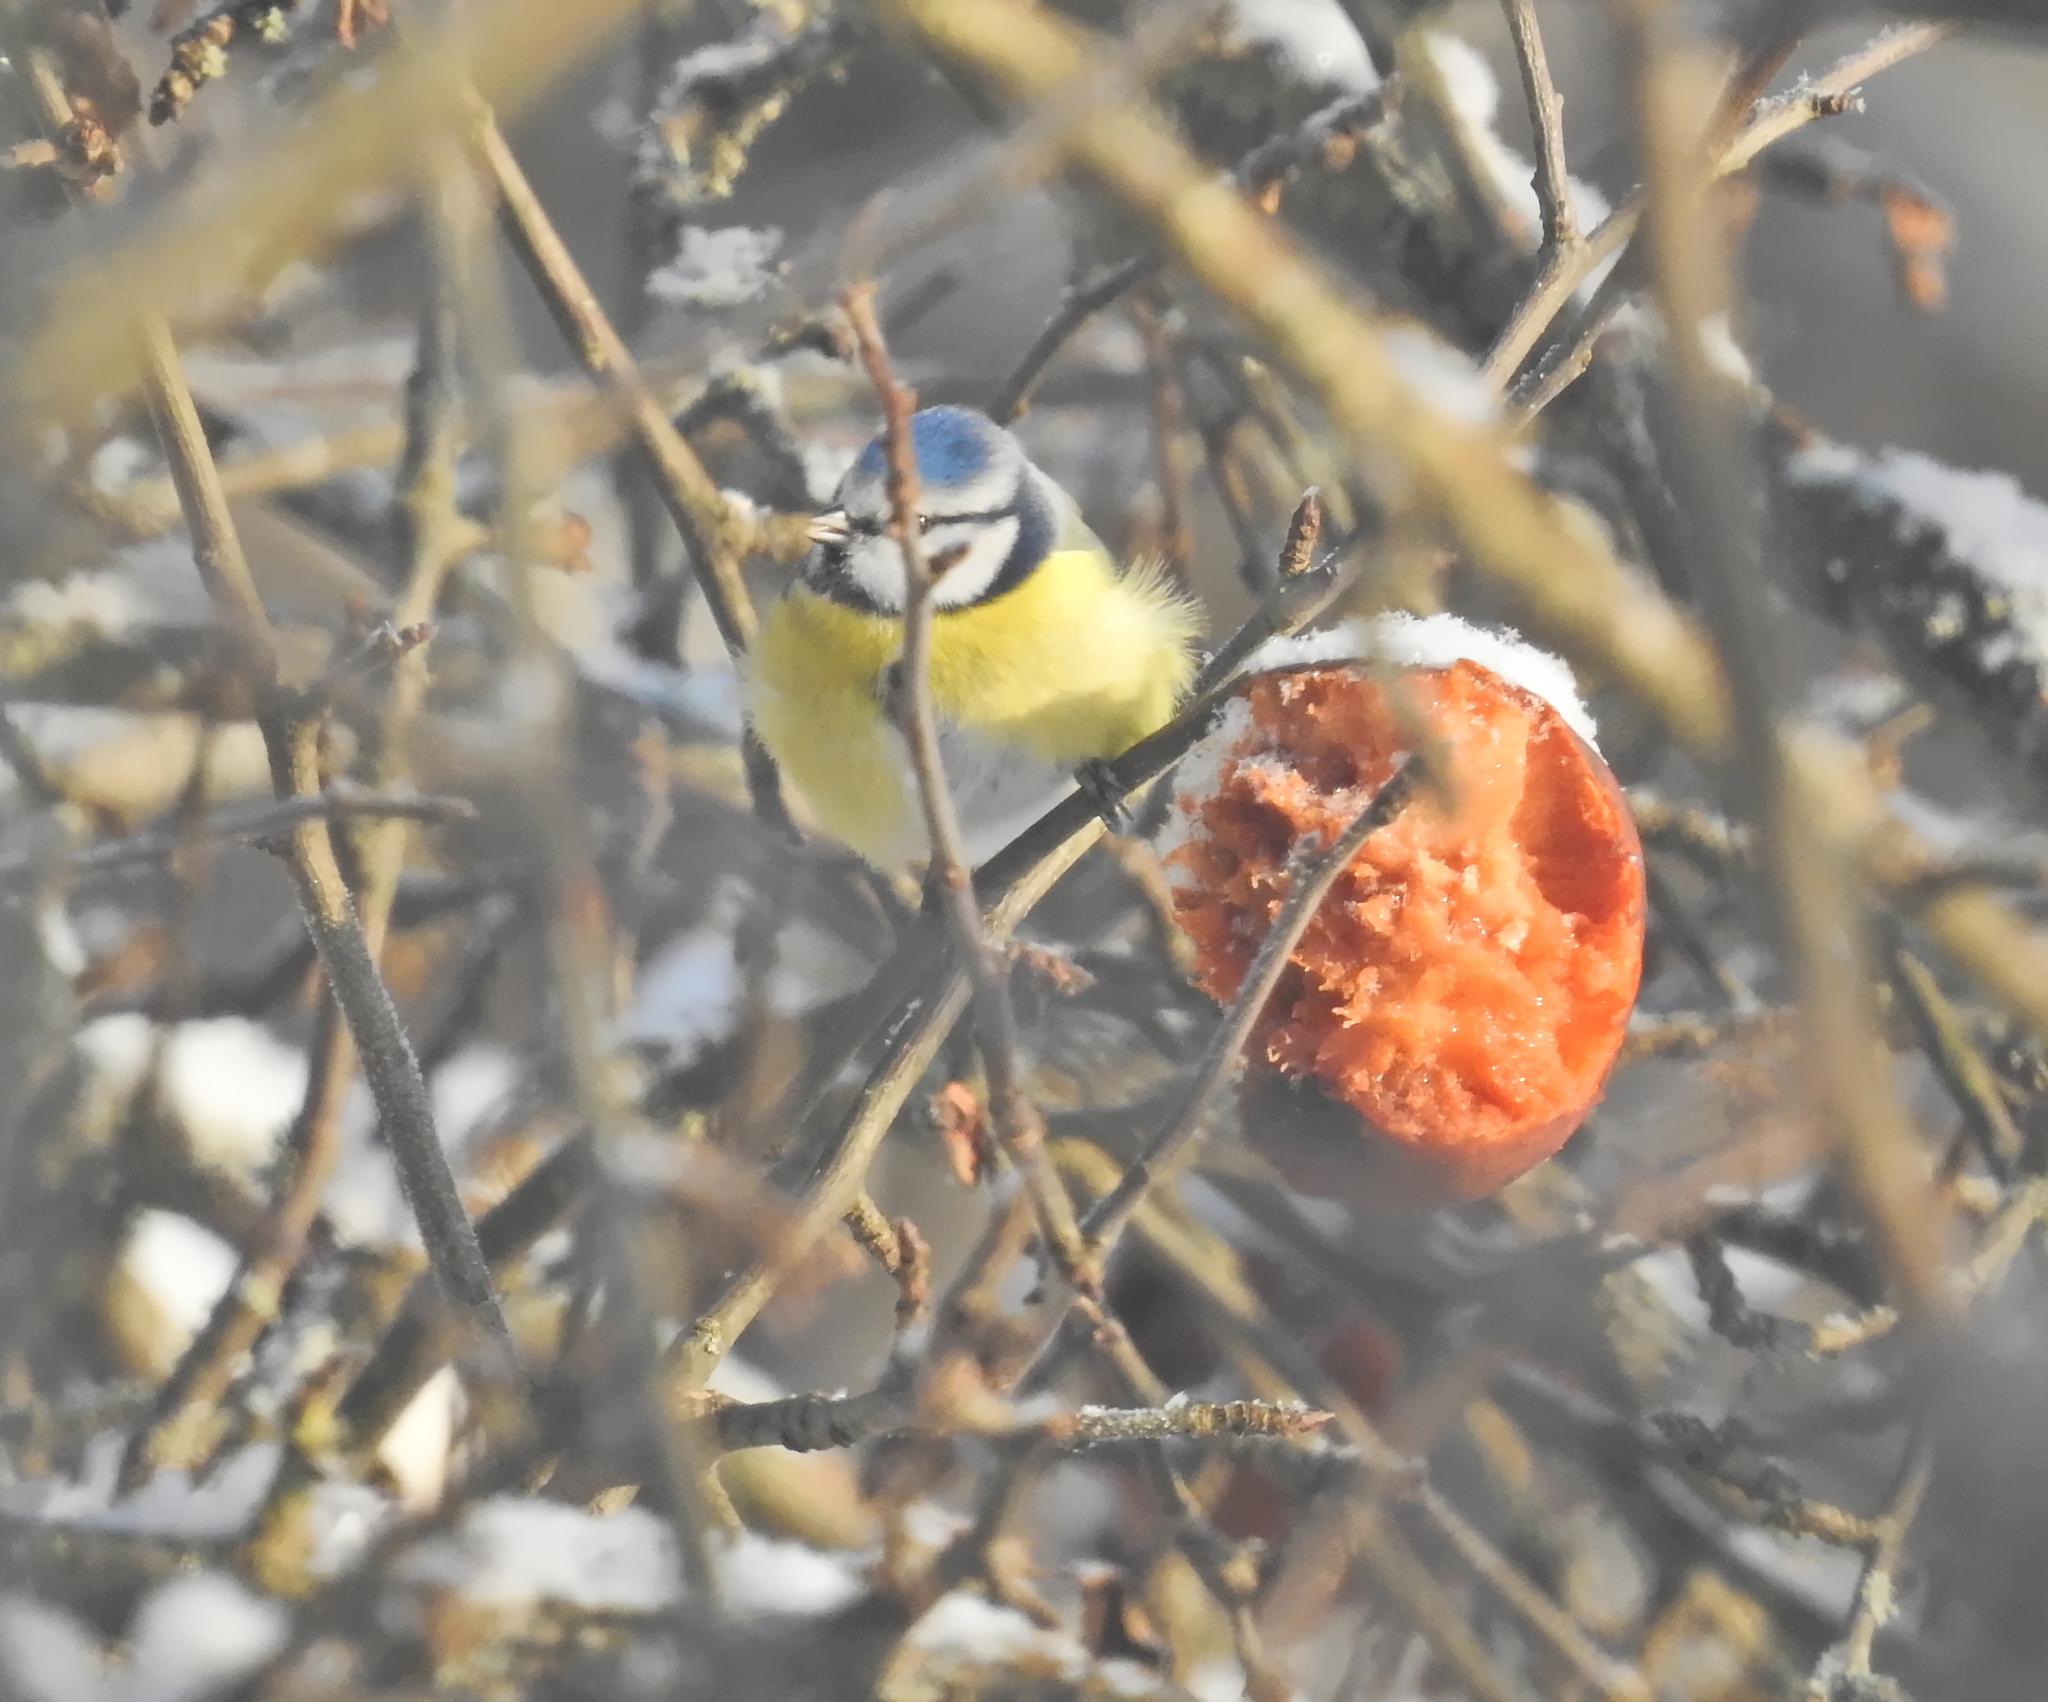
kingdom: Animalia
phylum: Chordata
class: Aves
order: Passeriformes
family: Paridae
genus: Cyanistes
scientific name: Cyanistes caeruleus
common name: Eurasian blue tit
